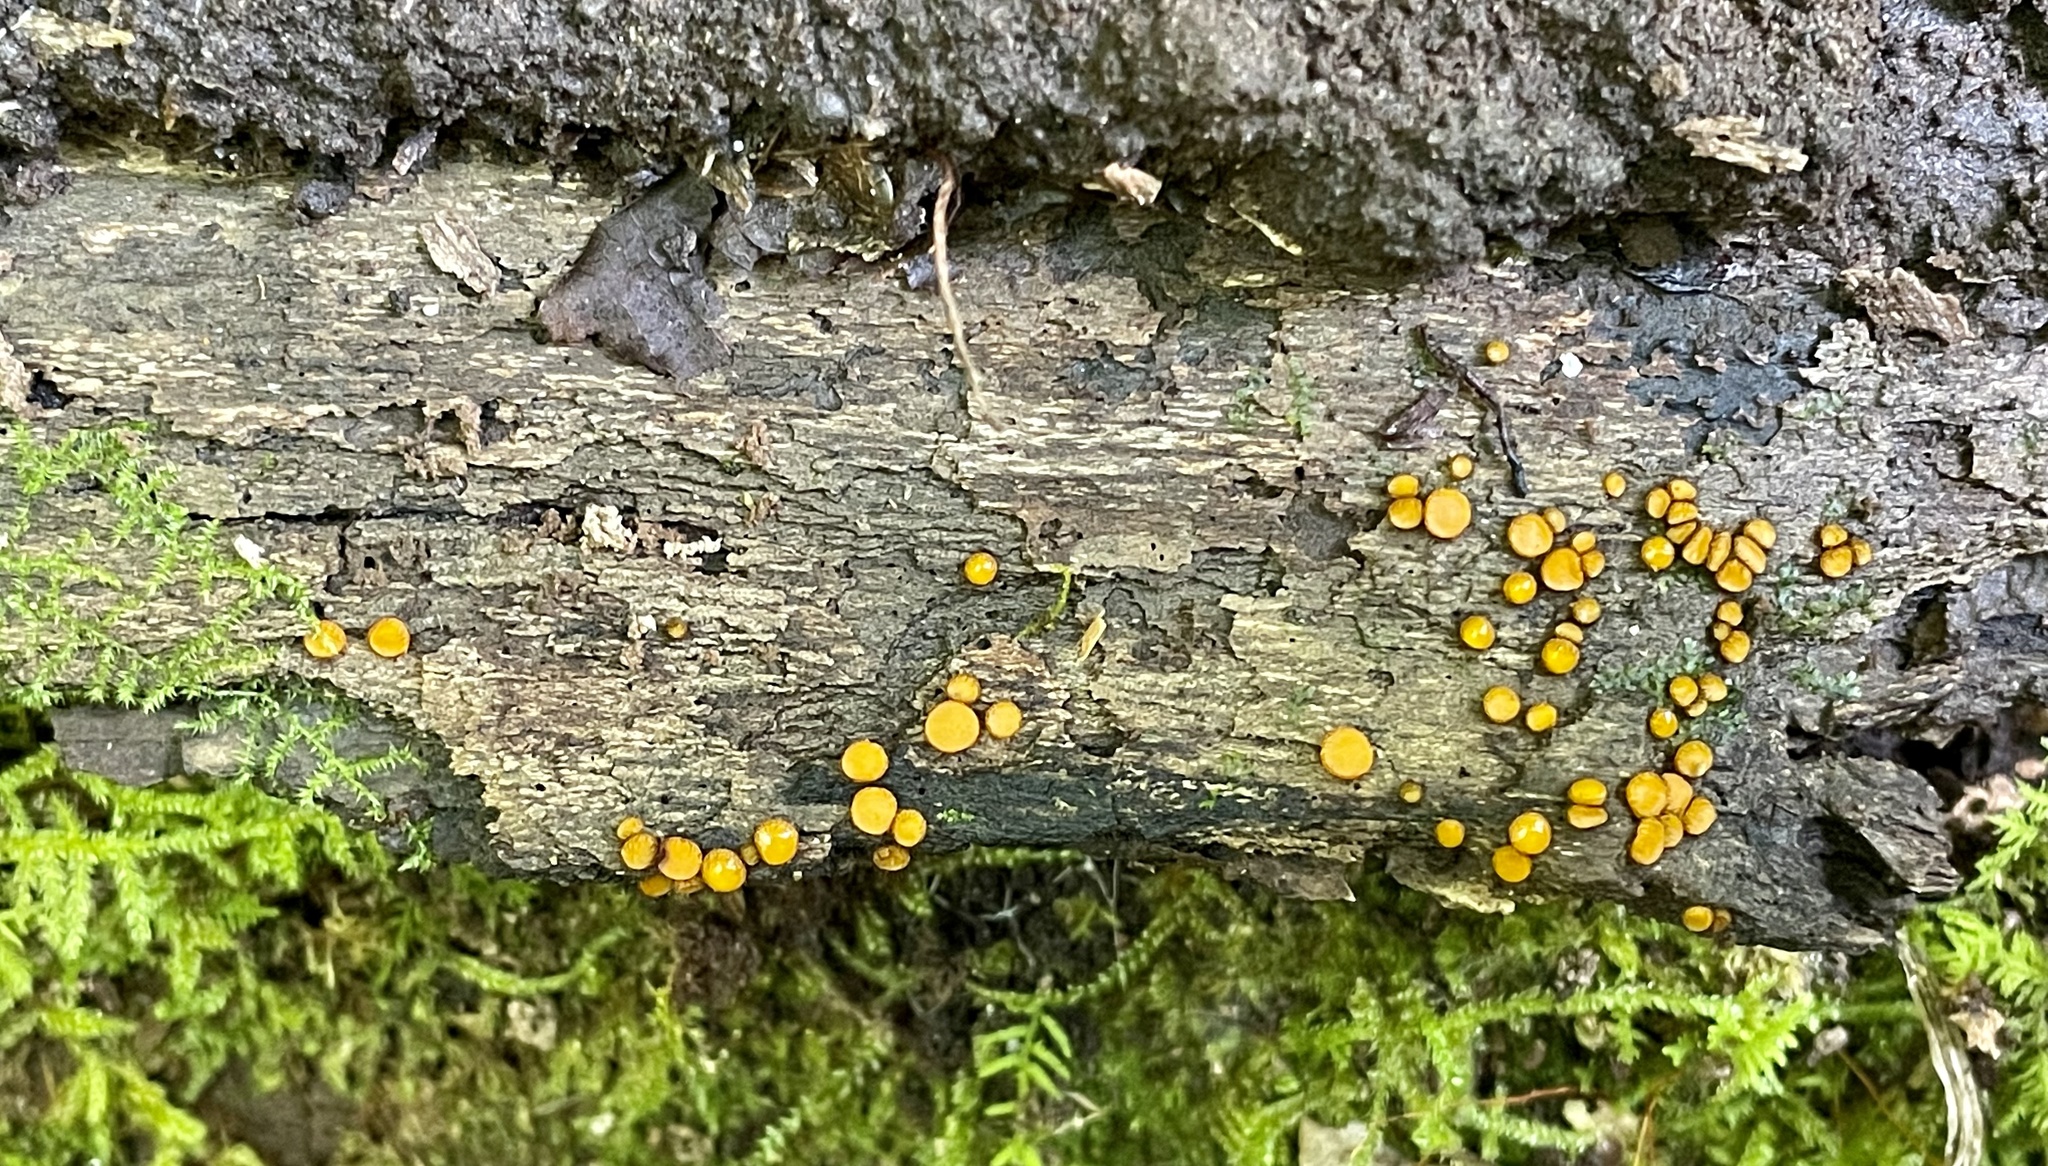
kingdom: Fungi
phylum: Ascomycota
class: Pezizomycetes
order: Pezizales
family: Pyronemataceae
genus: Scutellinia
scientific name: Scutellinia setosa
